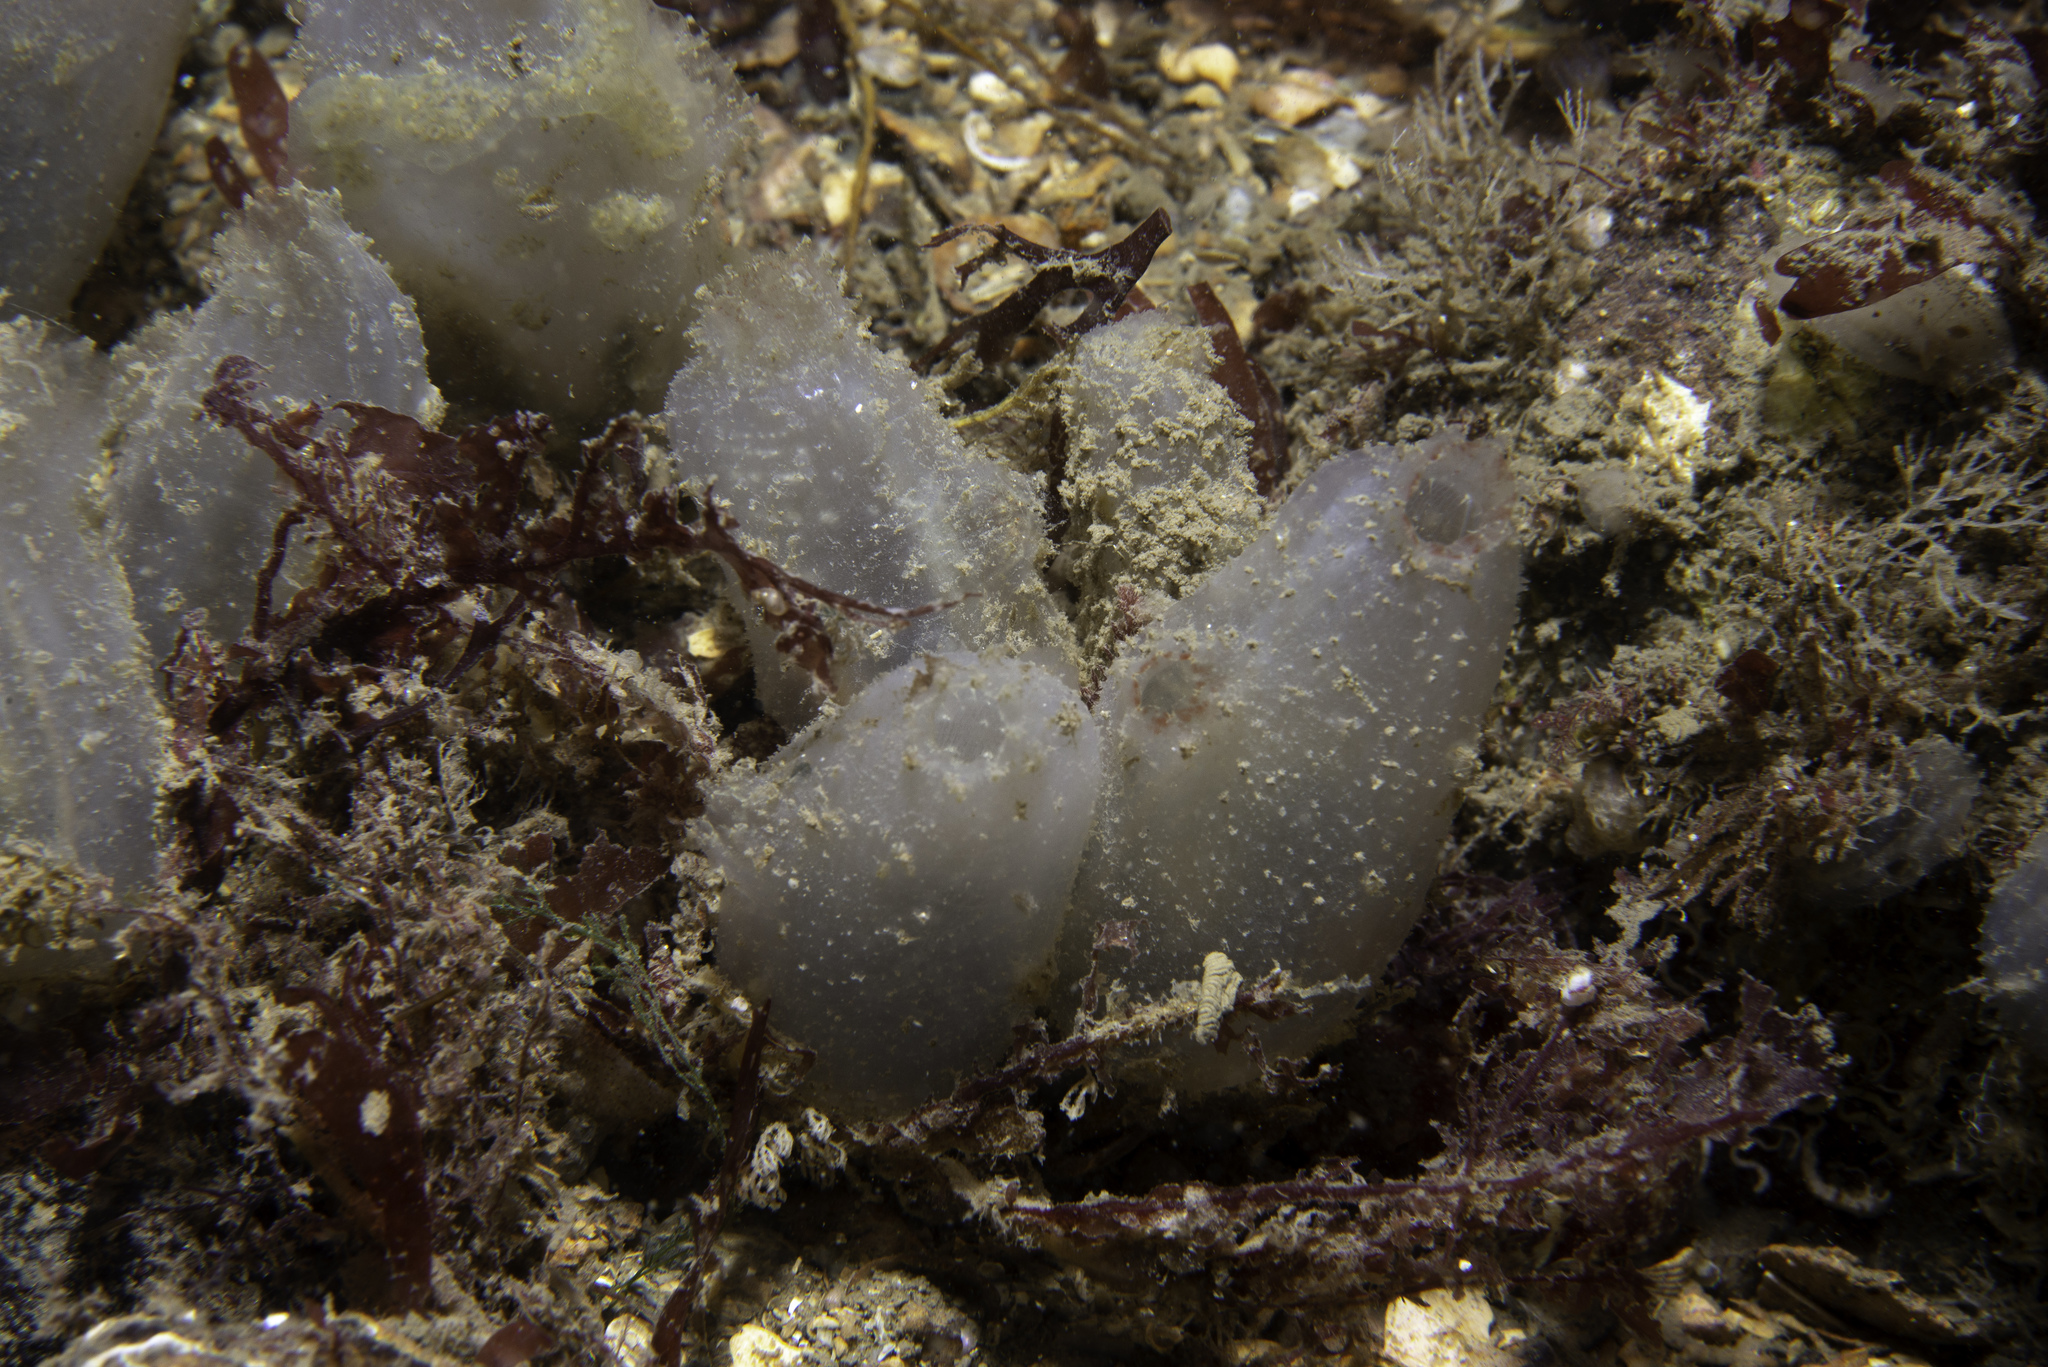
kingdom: Animalia
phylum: Chordata
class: Ascidiacea
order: Phlebobranchia
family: Ascidiidae
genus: Ascidiella
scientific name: Ascidiella aspersa
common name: Dirty sea-squirt
